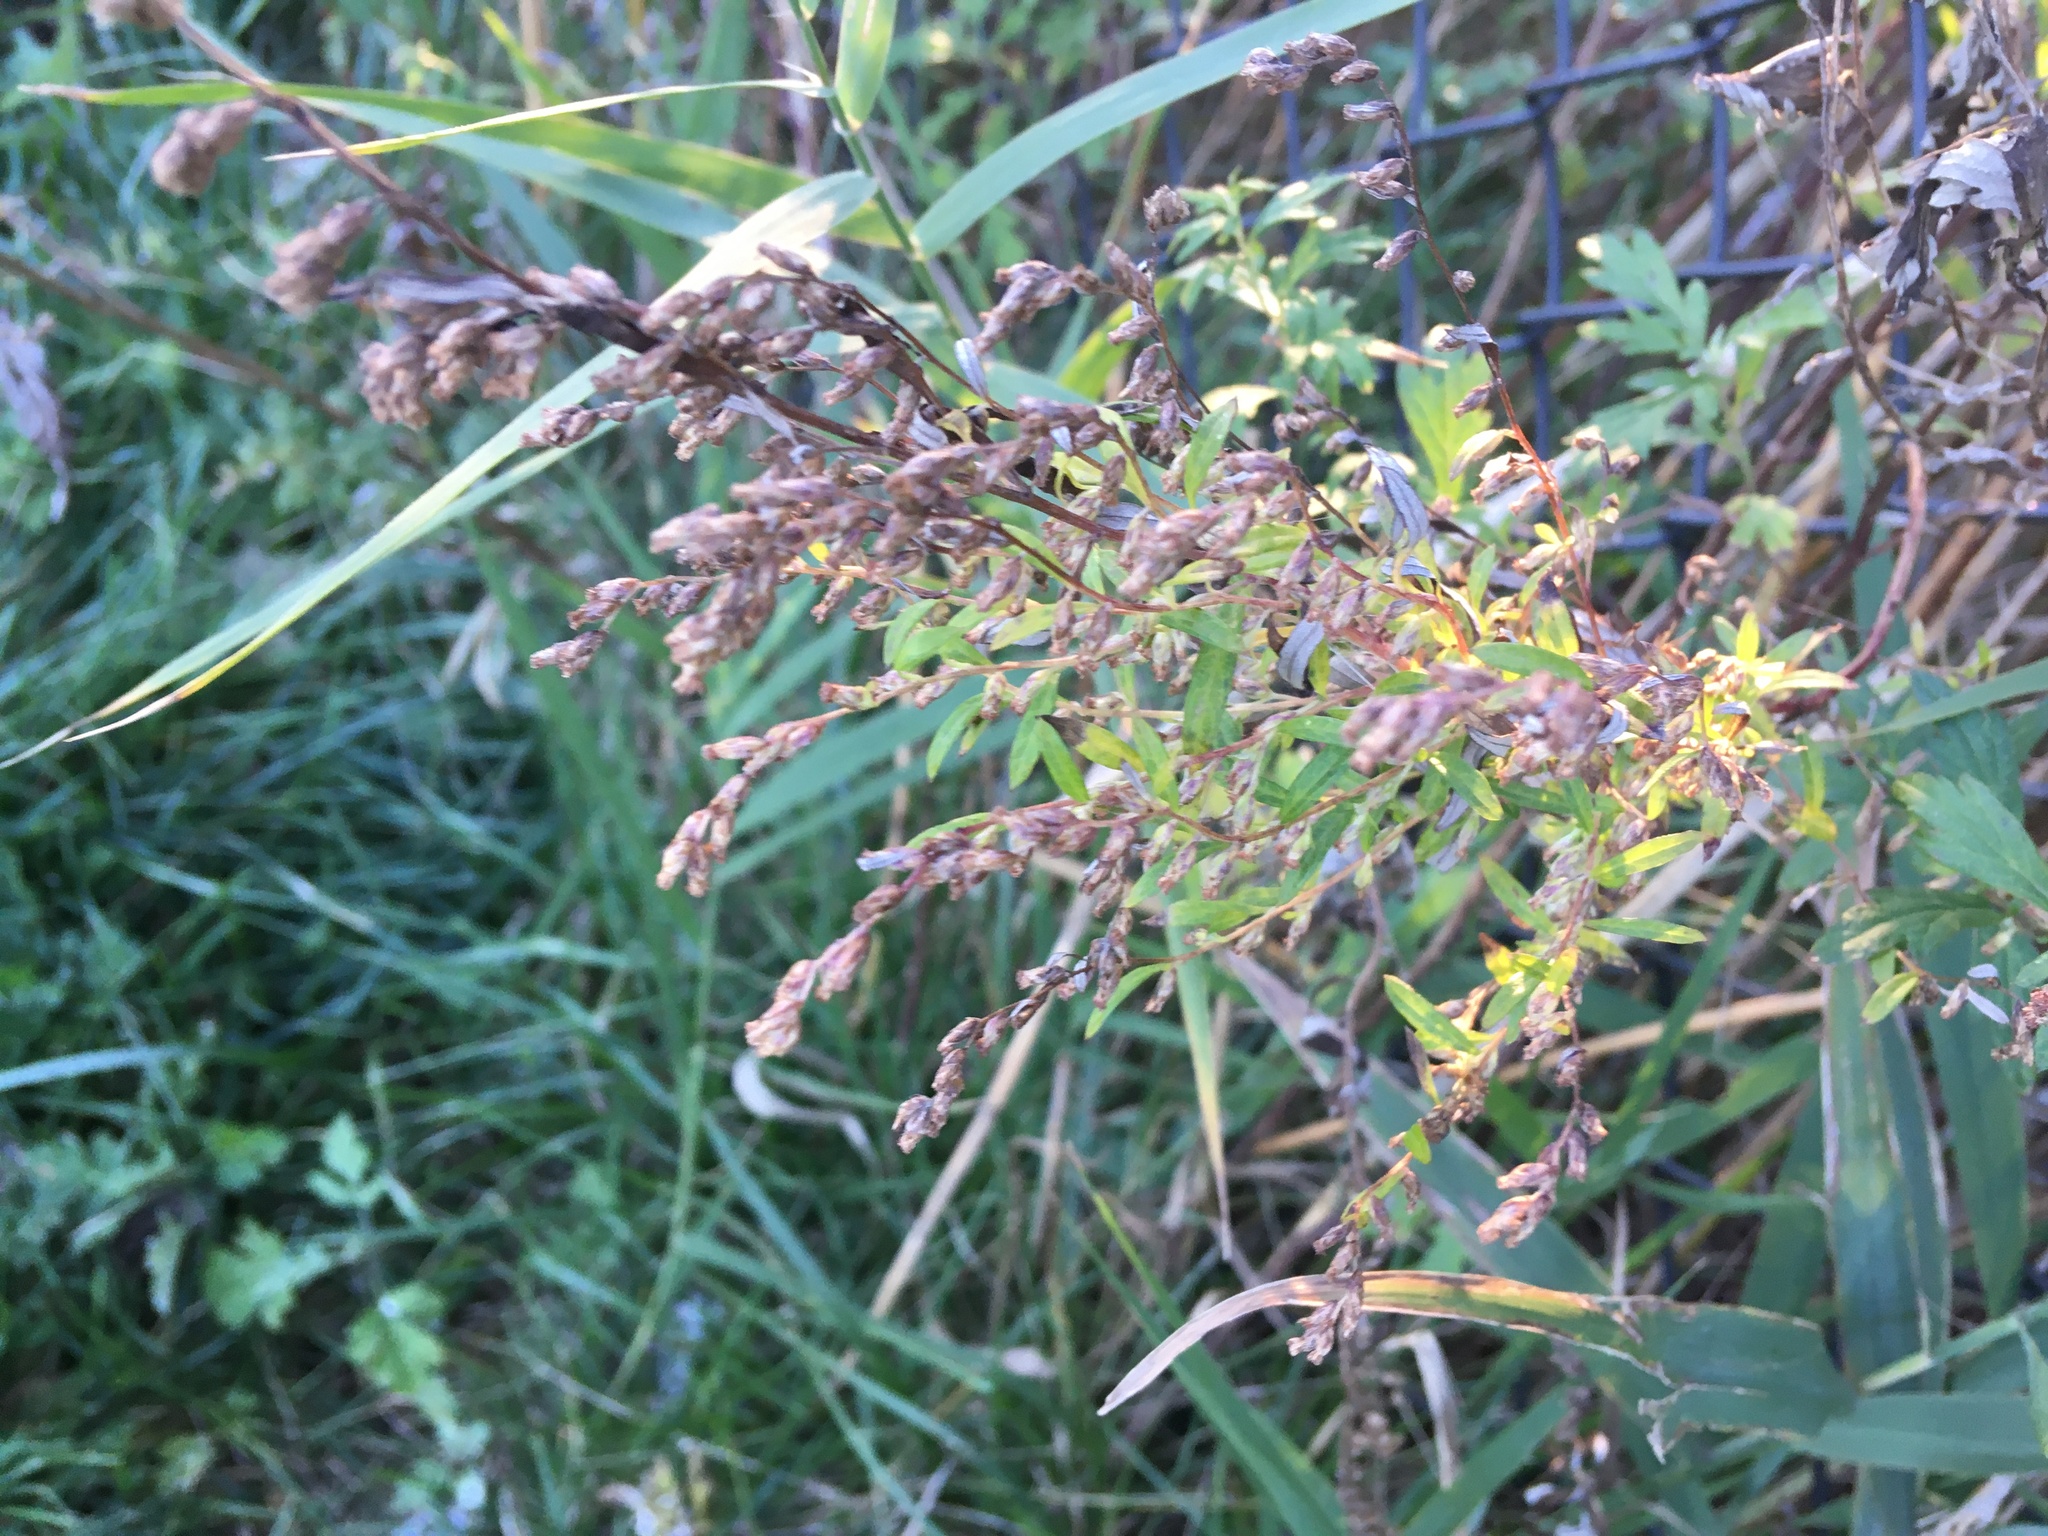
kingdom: Plantae
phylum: Tracheophyta
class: Magnoliopsida
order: Asterales
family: Asteraceae
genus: Artemisia
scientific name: Artemisia vulgaris
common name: Mugwort
